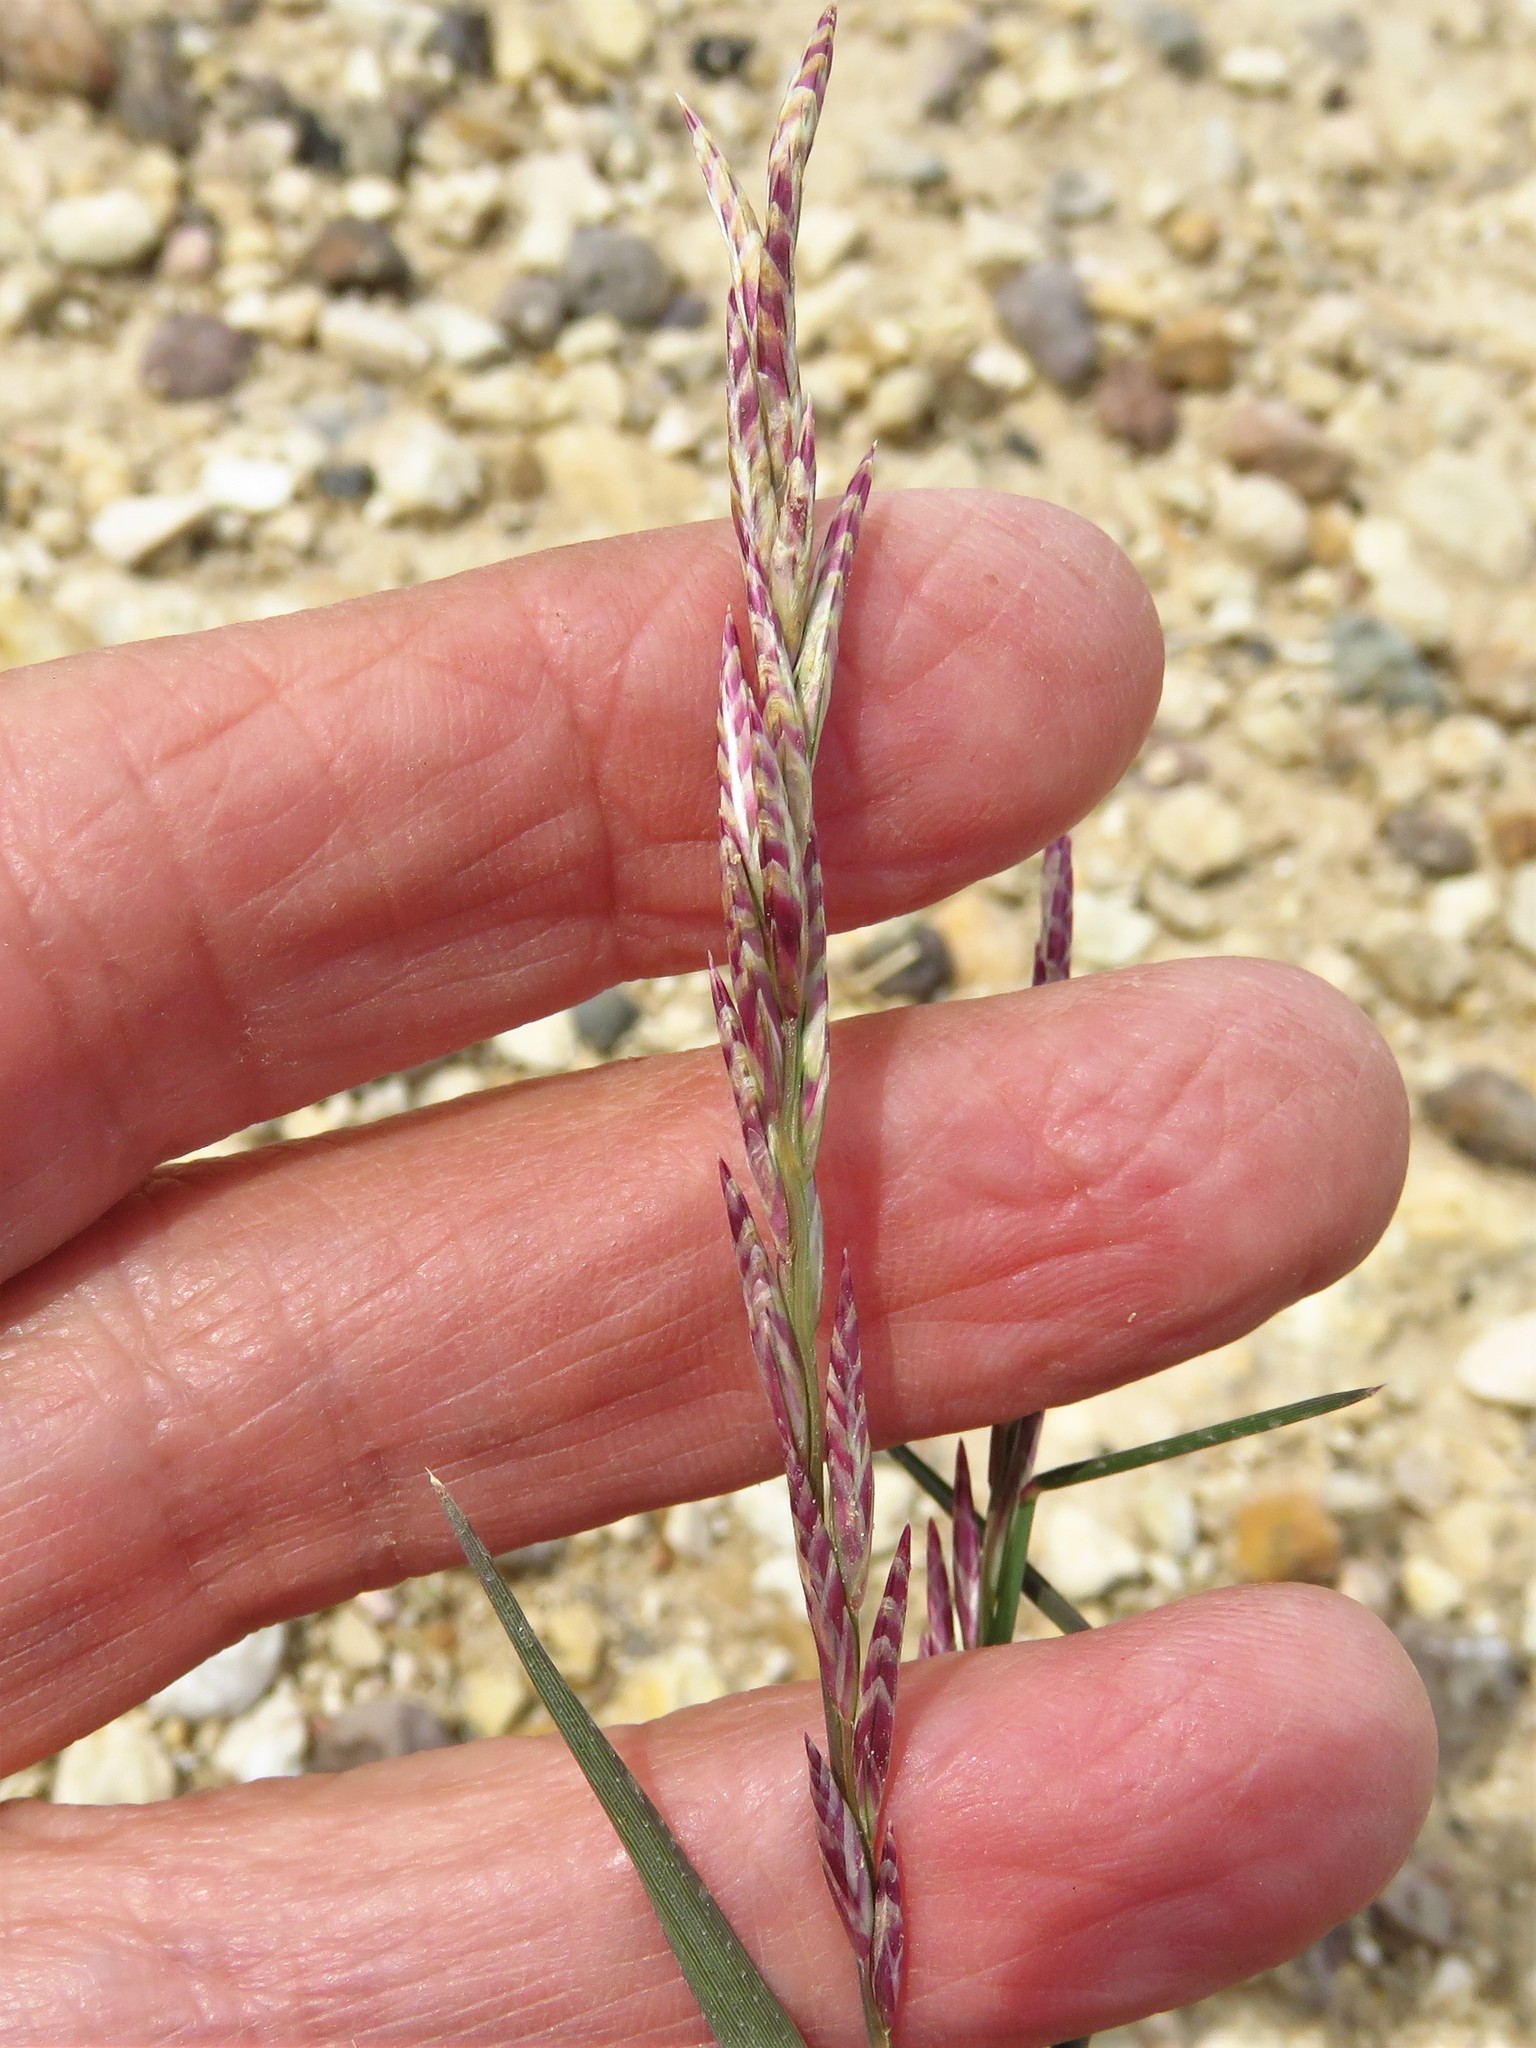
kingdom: Plantae
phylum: Tracheophyta
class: Liliopsida
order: Poales
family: Poaceae
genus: Tridentopsis
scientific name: Tridentopsis mutica
